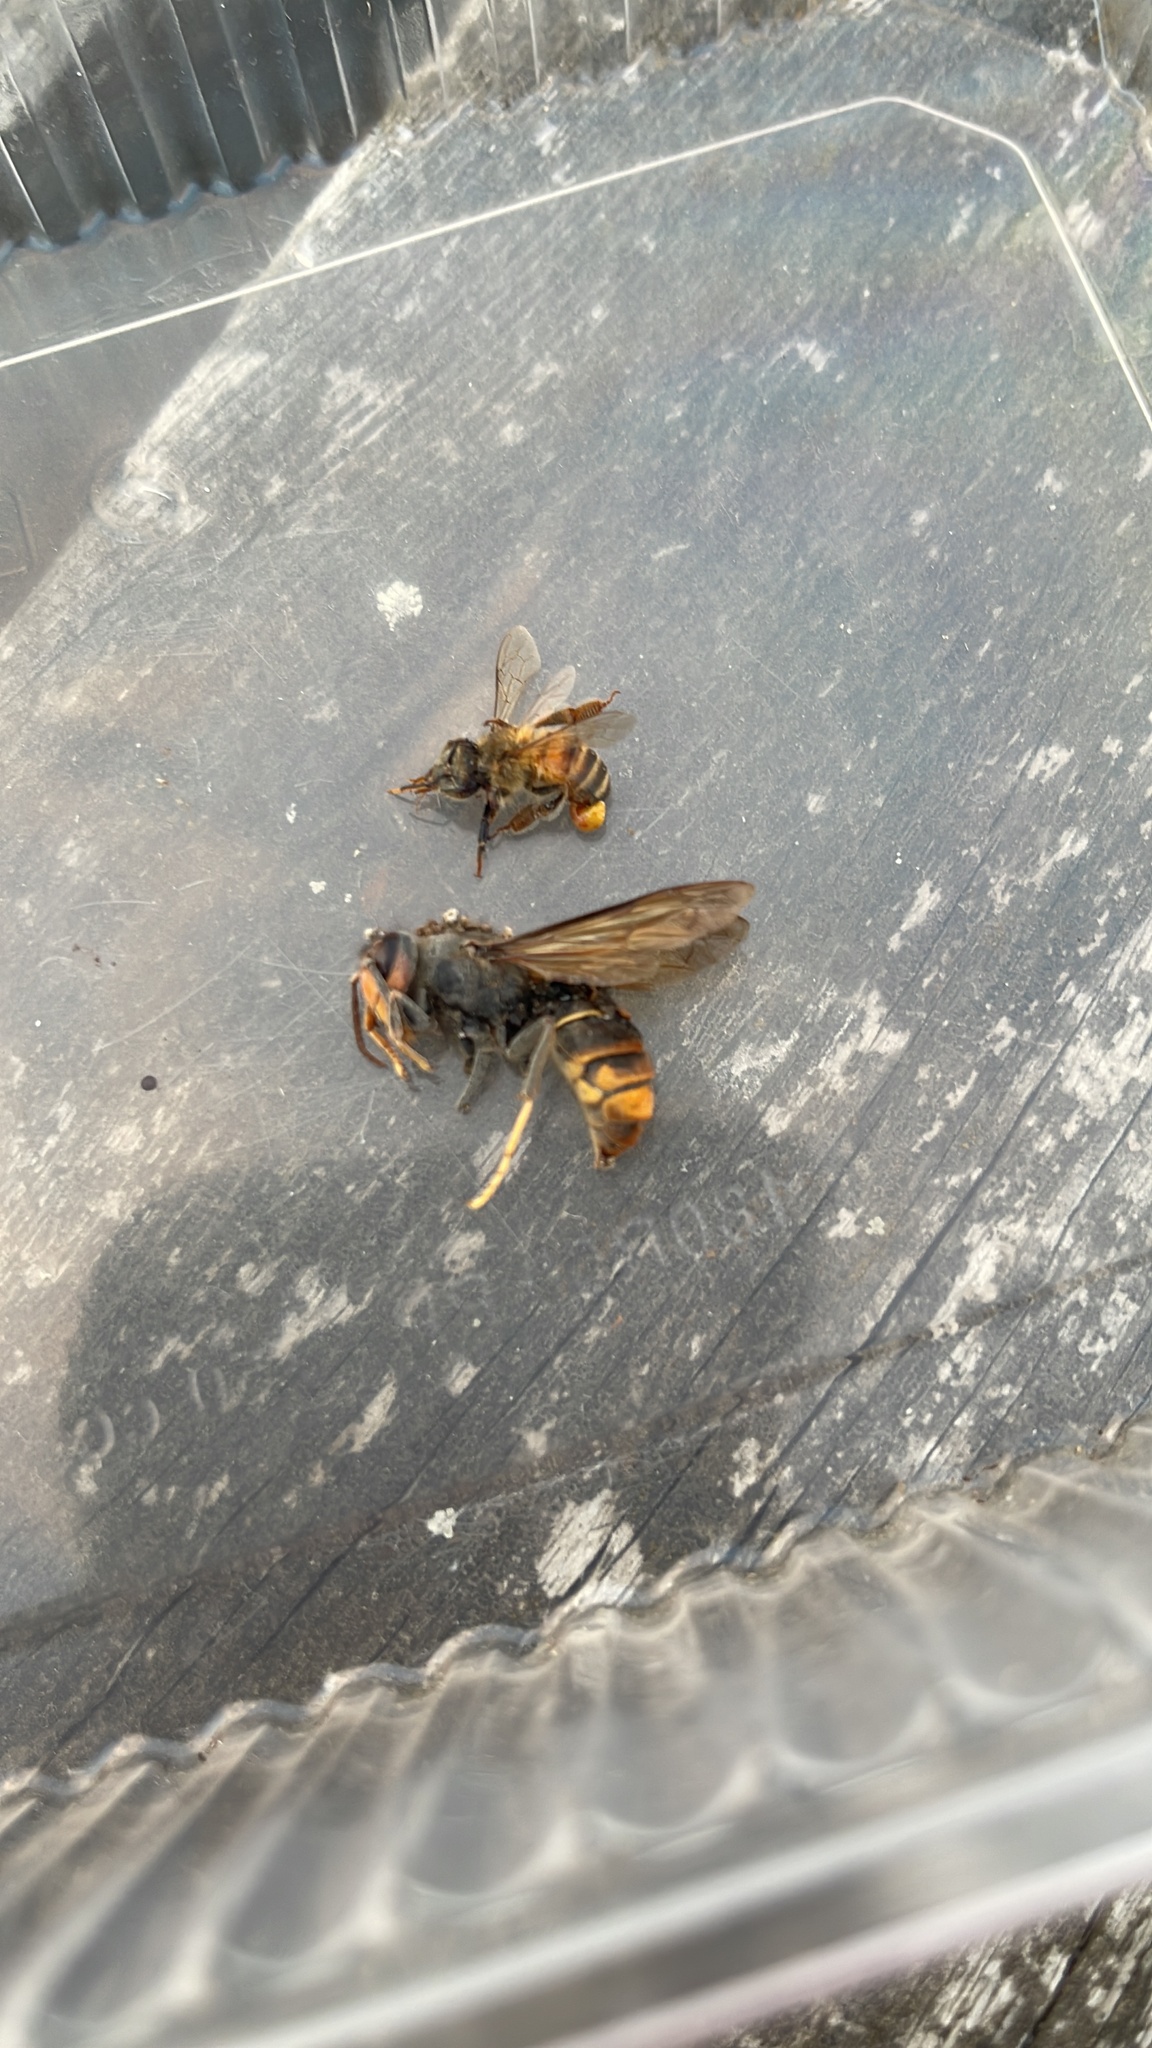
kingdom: Animalia
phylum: Arthropoda
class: Insecta
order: Hymenoptera
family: Vespidae
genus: Vespa
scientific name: Vespa velutina
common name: Asian hornet
